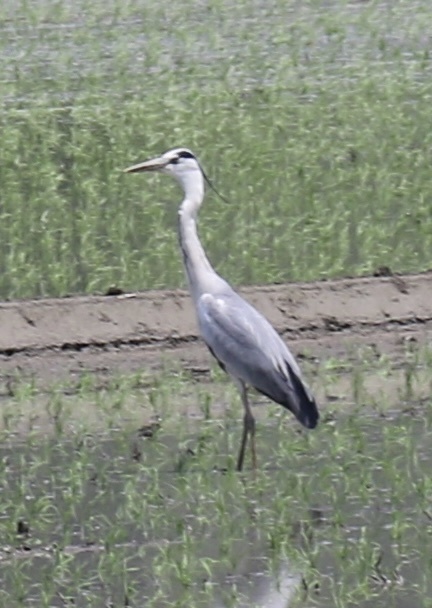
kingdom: Animalia
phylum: Chordata
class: Aves
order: Pelecaniformes
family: Ardeidae
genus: Ardea
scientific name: Ardea cinerea
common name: Grey heron
